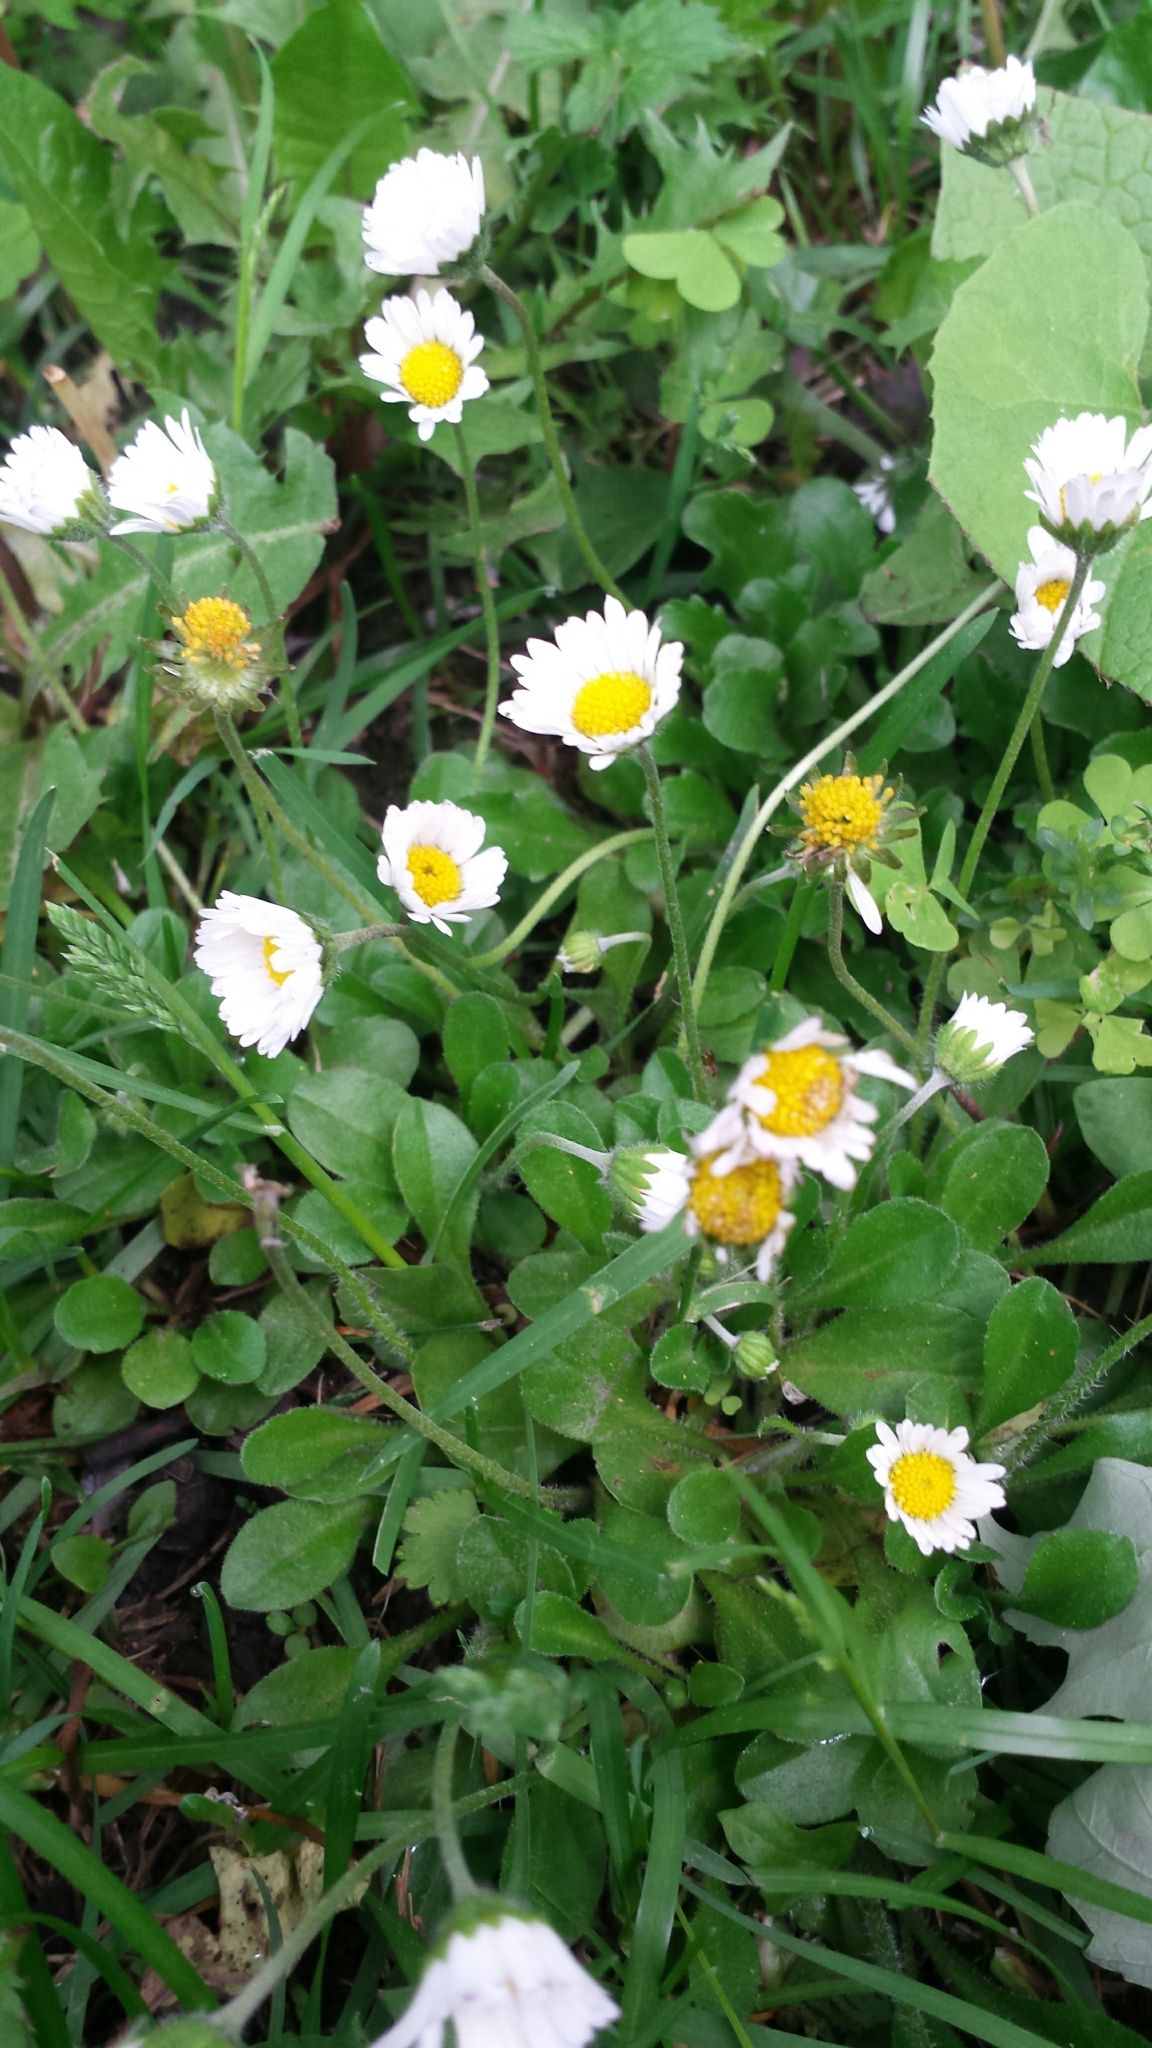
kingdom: Plantae
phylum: Tracheophyta
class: Magnoliopsida
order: Asterales
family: Asteraceae
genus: Bellis
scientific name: Bellis perennis
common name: Lawndaisy
